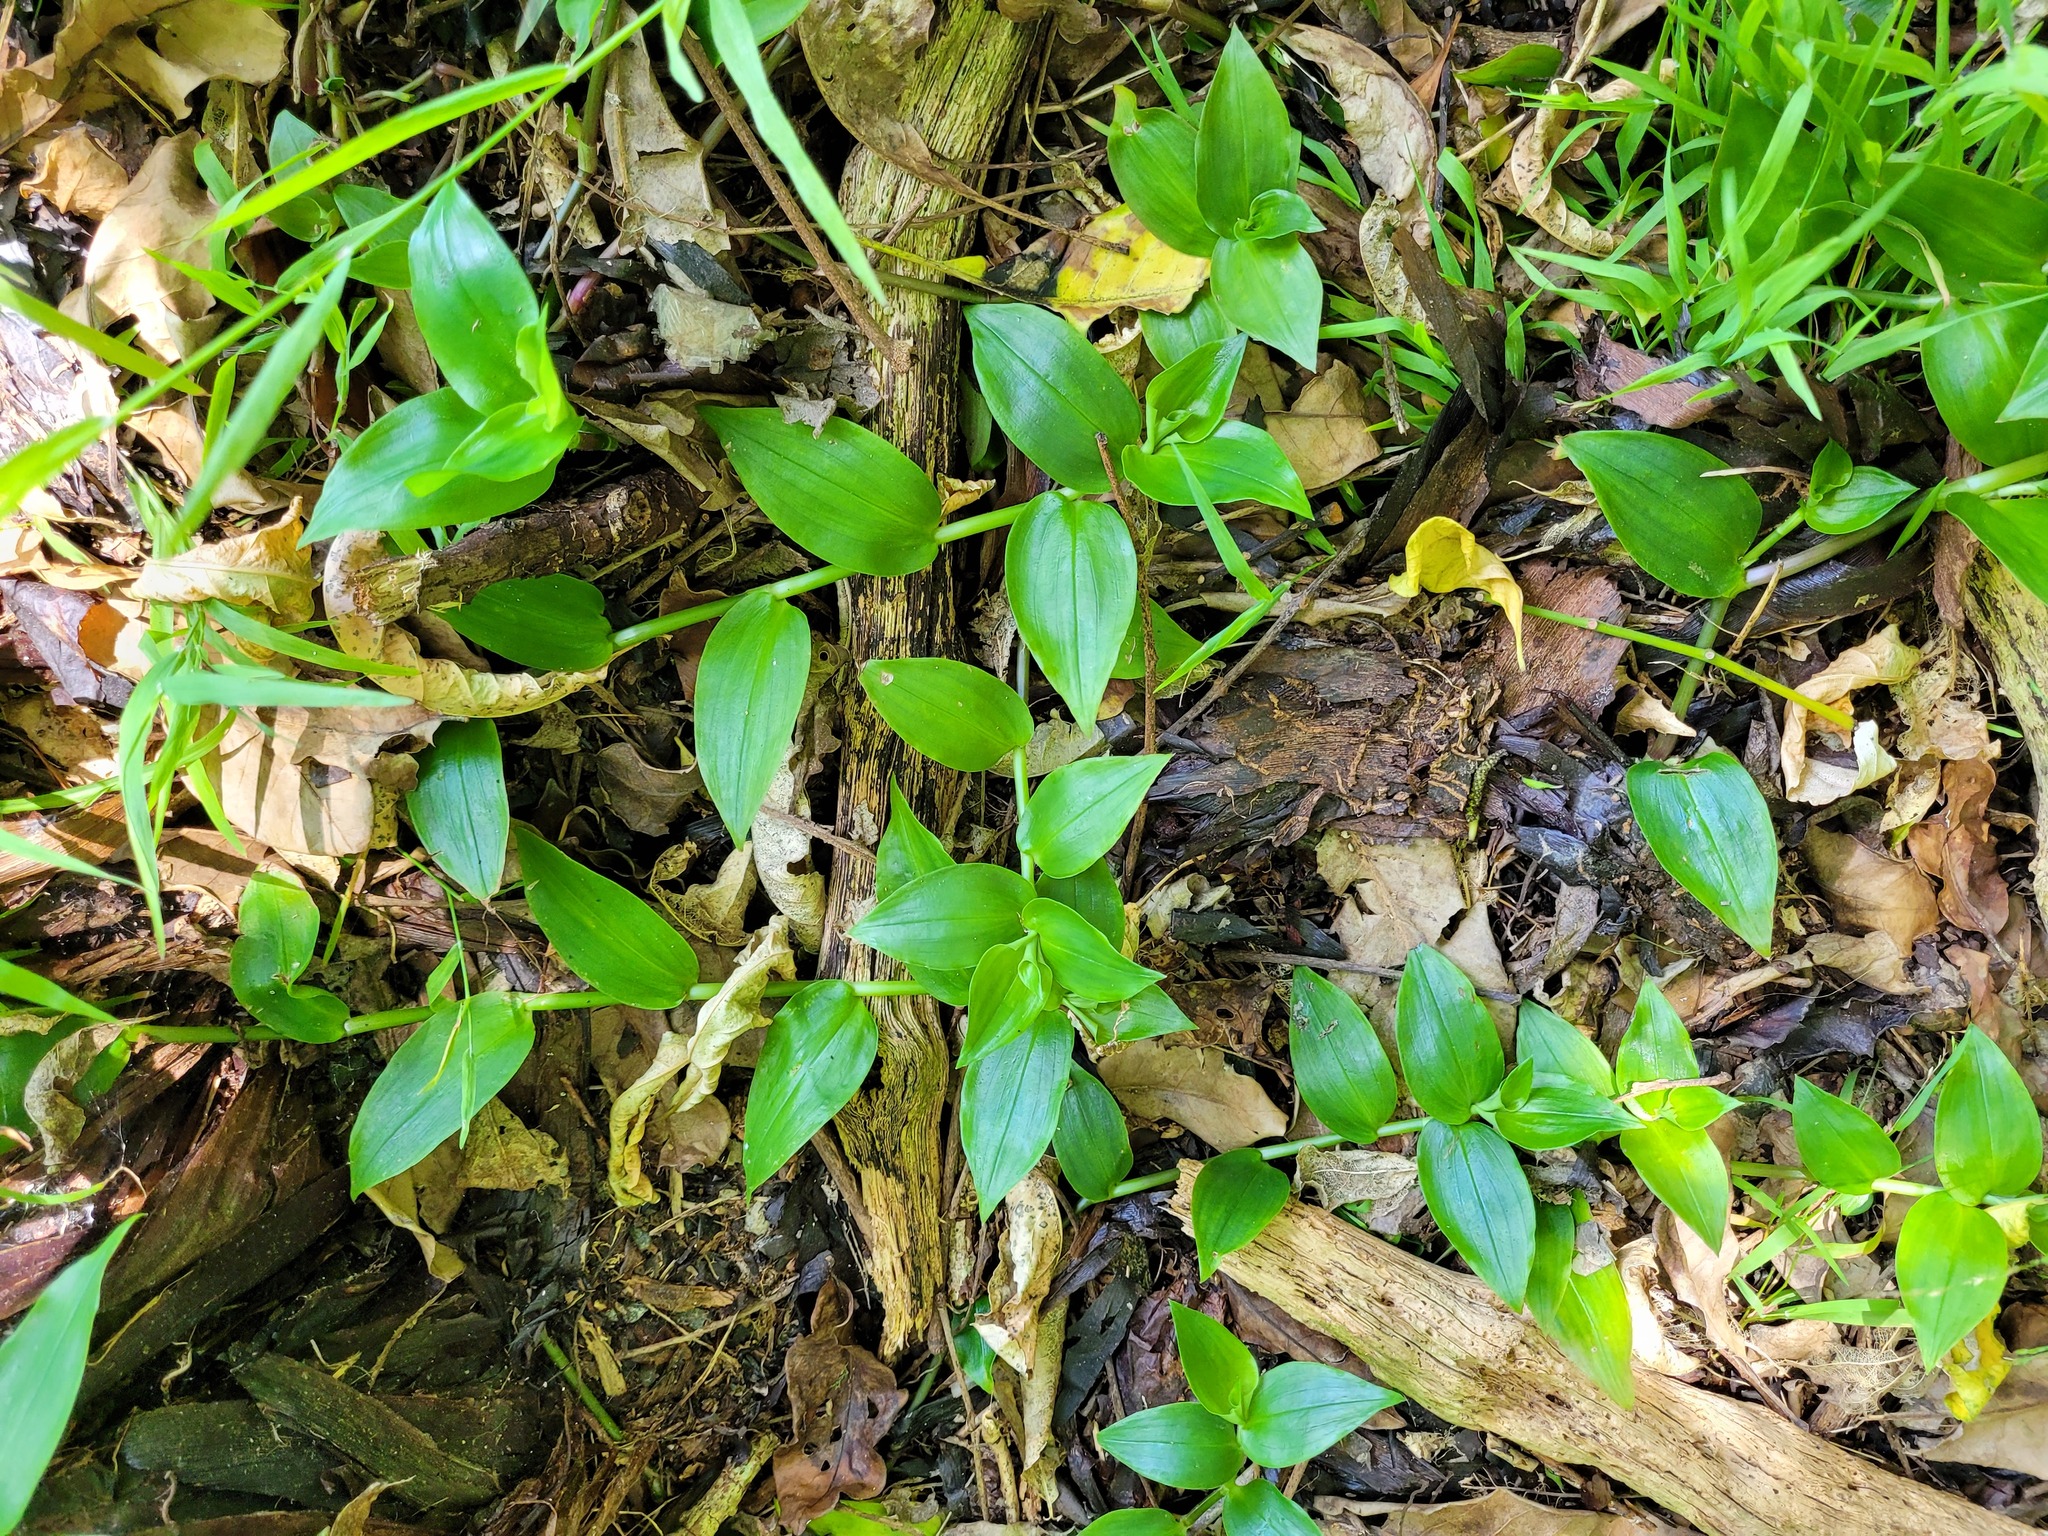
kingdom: Plantae
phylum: Tracheophyta
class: Liliopsida
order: Commelinales
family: Commelinaceae
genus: Tradescantia
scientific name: Tradescantia fluminensis
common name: Wandering-jew
